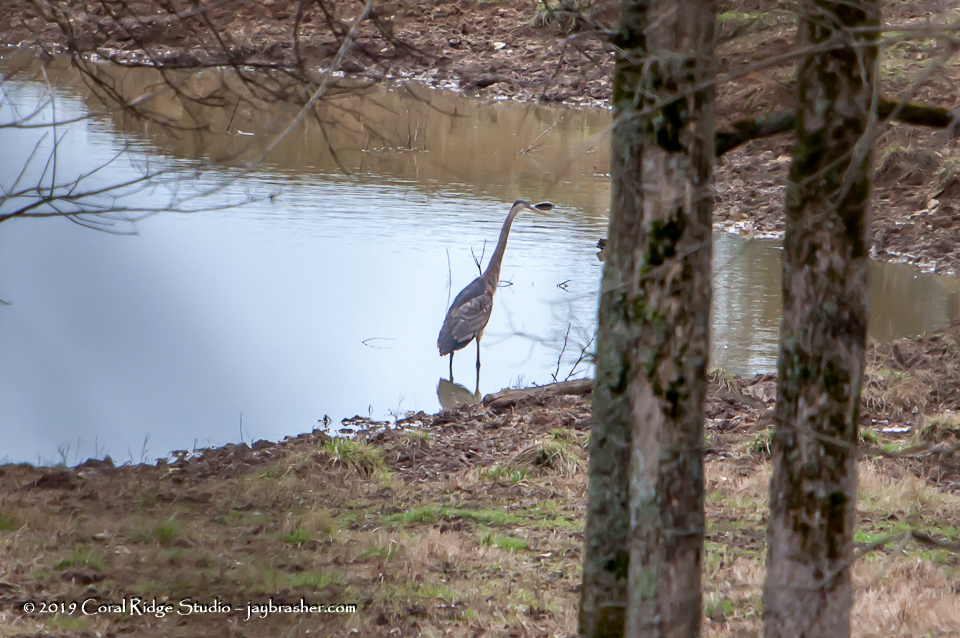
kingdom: Animalia
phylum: Chordata
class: Aves
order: Pelecaniformes
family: Ardeidae
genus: Ardea
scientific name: Ardea herodias
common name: Great blue heron
